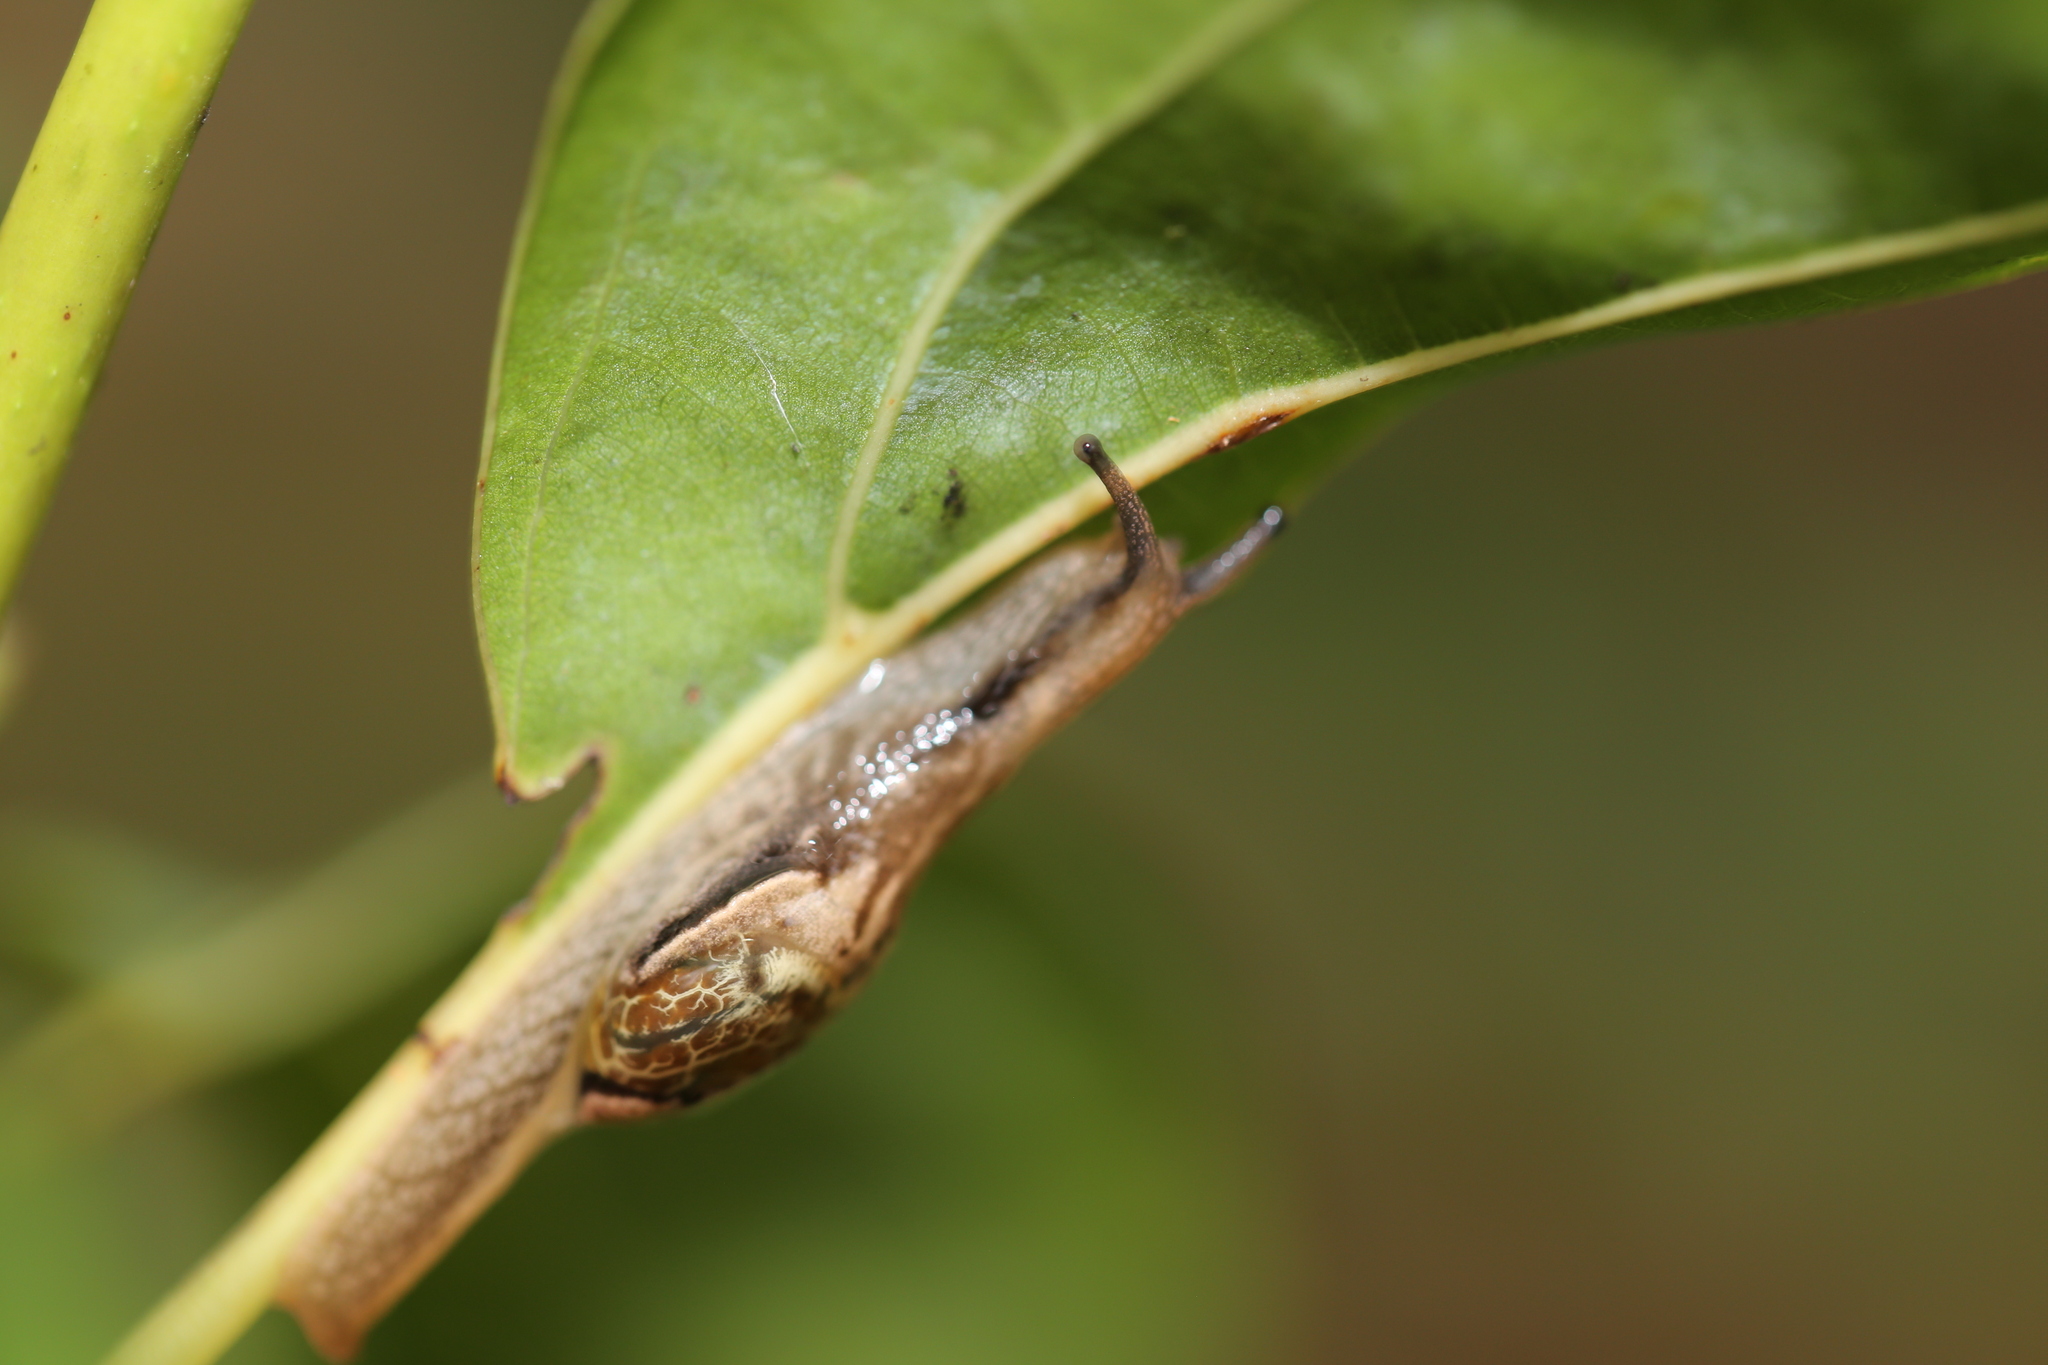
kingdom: Animalia
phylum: Mollusca
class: Gastropoda
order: Stylommatophora
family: Helicarionidae
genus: Ubiquitarion
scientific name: Ubiquitarion iridis
